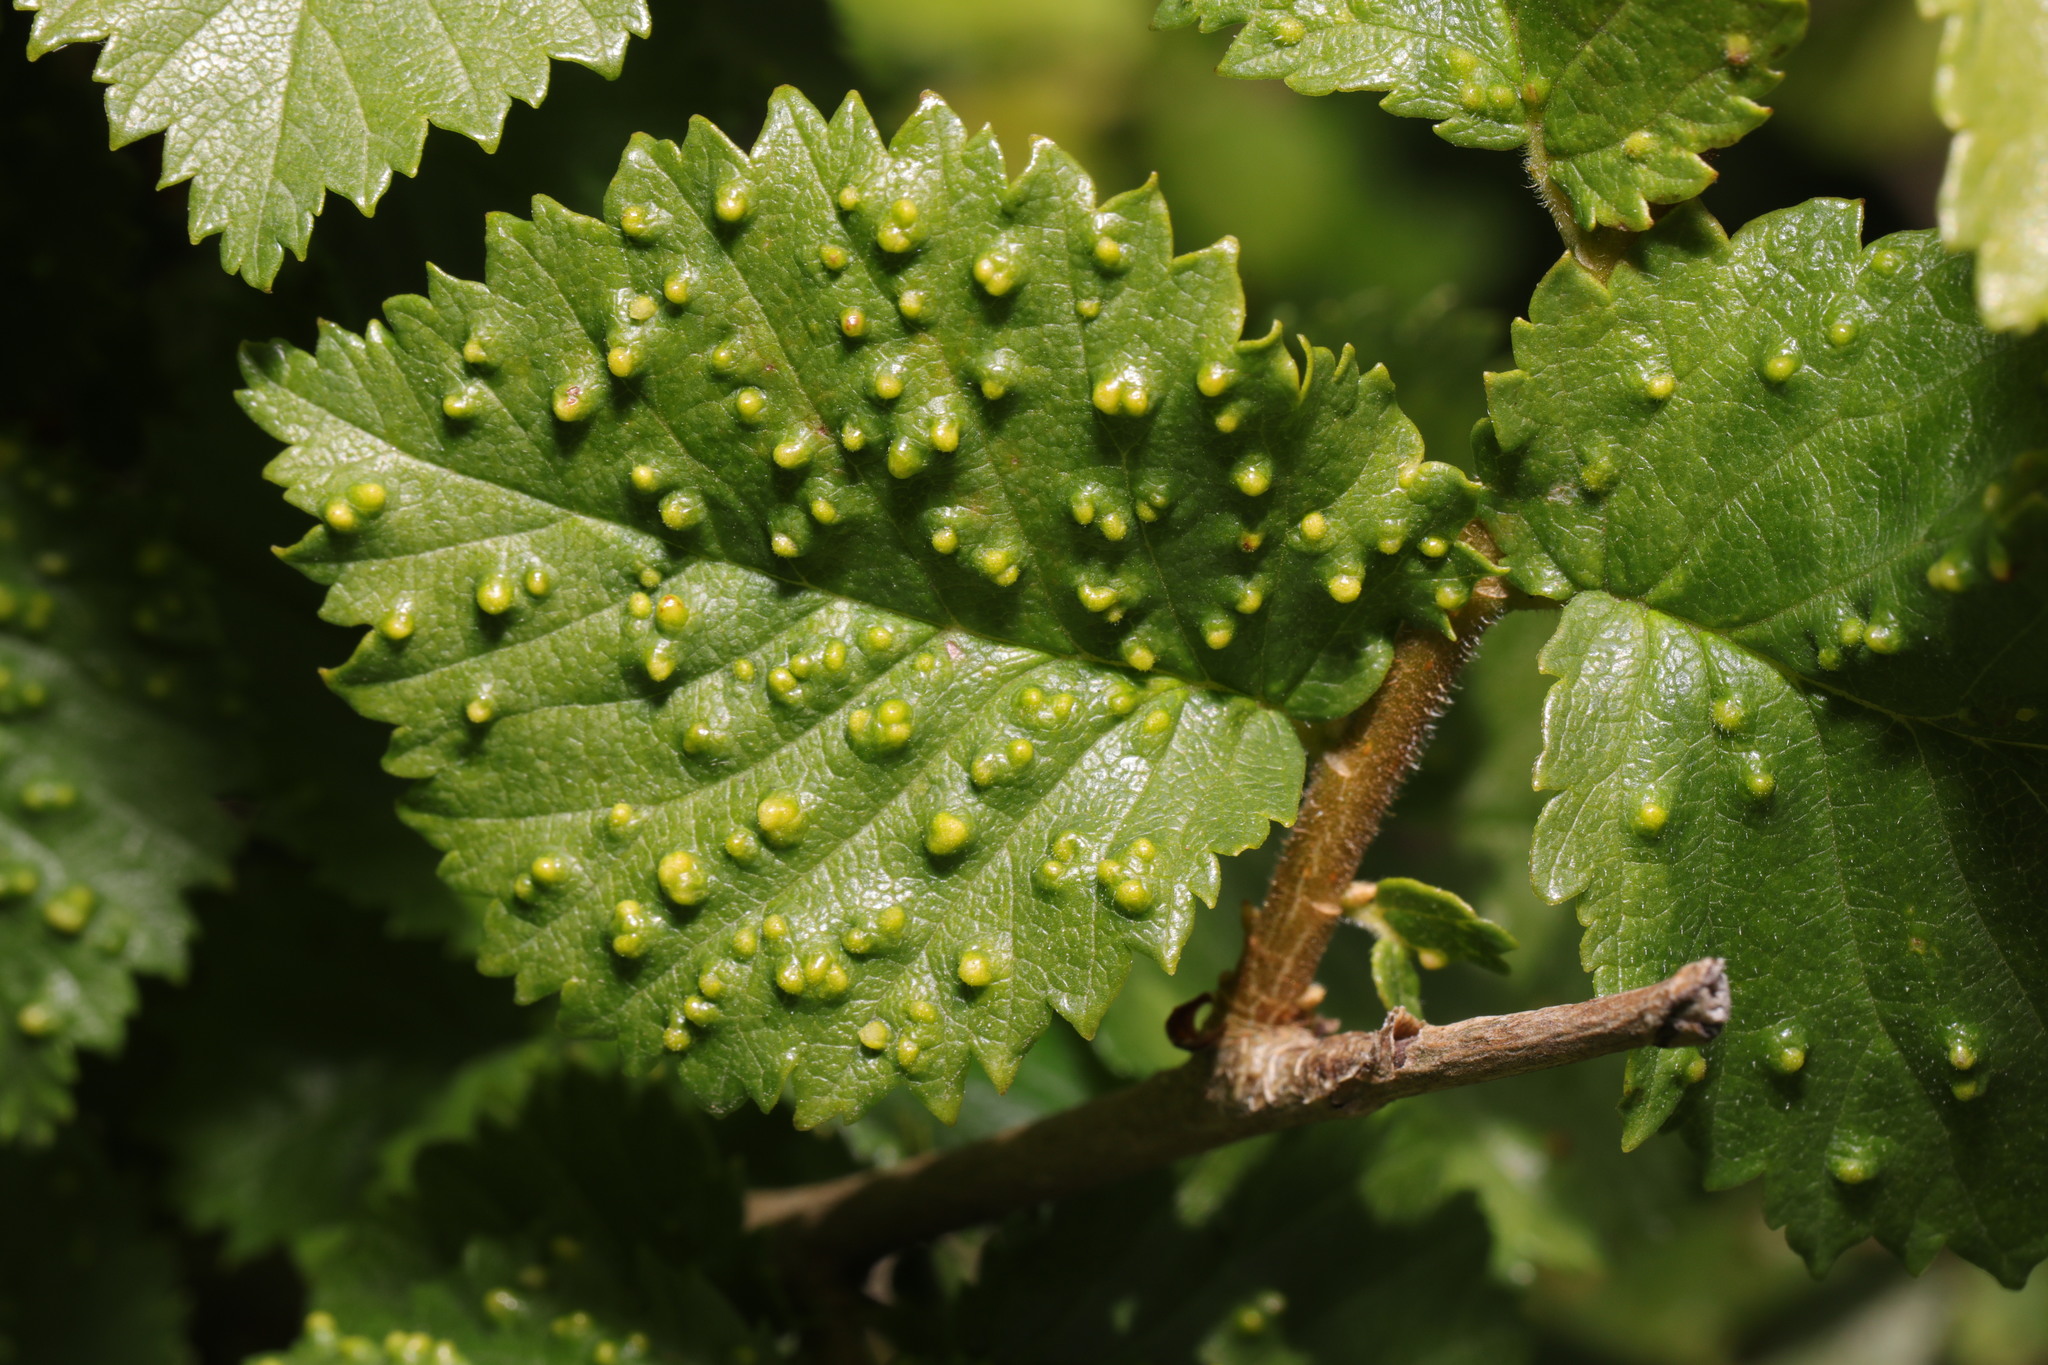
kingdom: Animalia
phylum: Arthropoda
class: Arachnida
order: Trombidiformes
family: Eriophyidae
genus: Aceria
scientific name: Aceria brevipunctata
